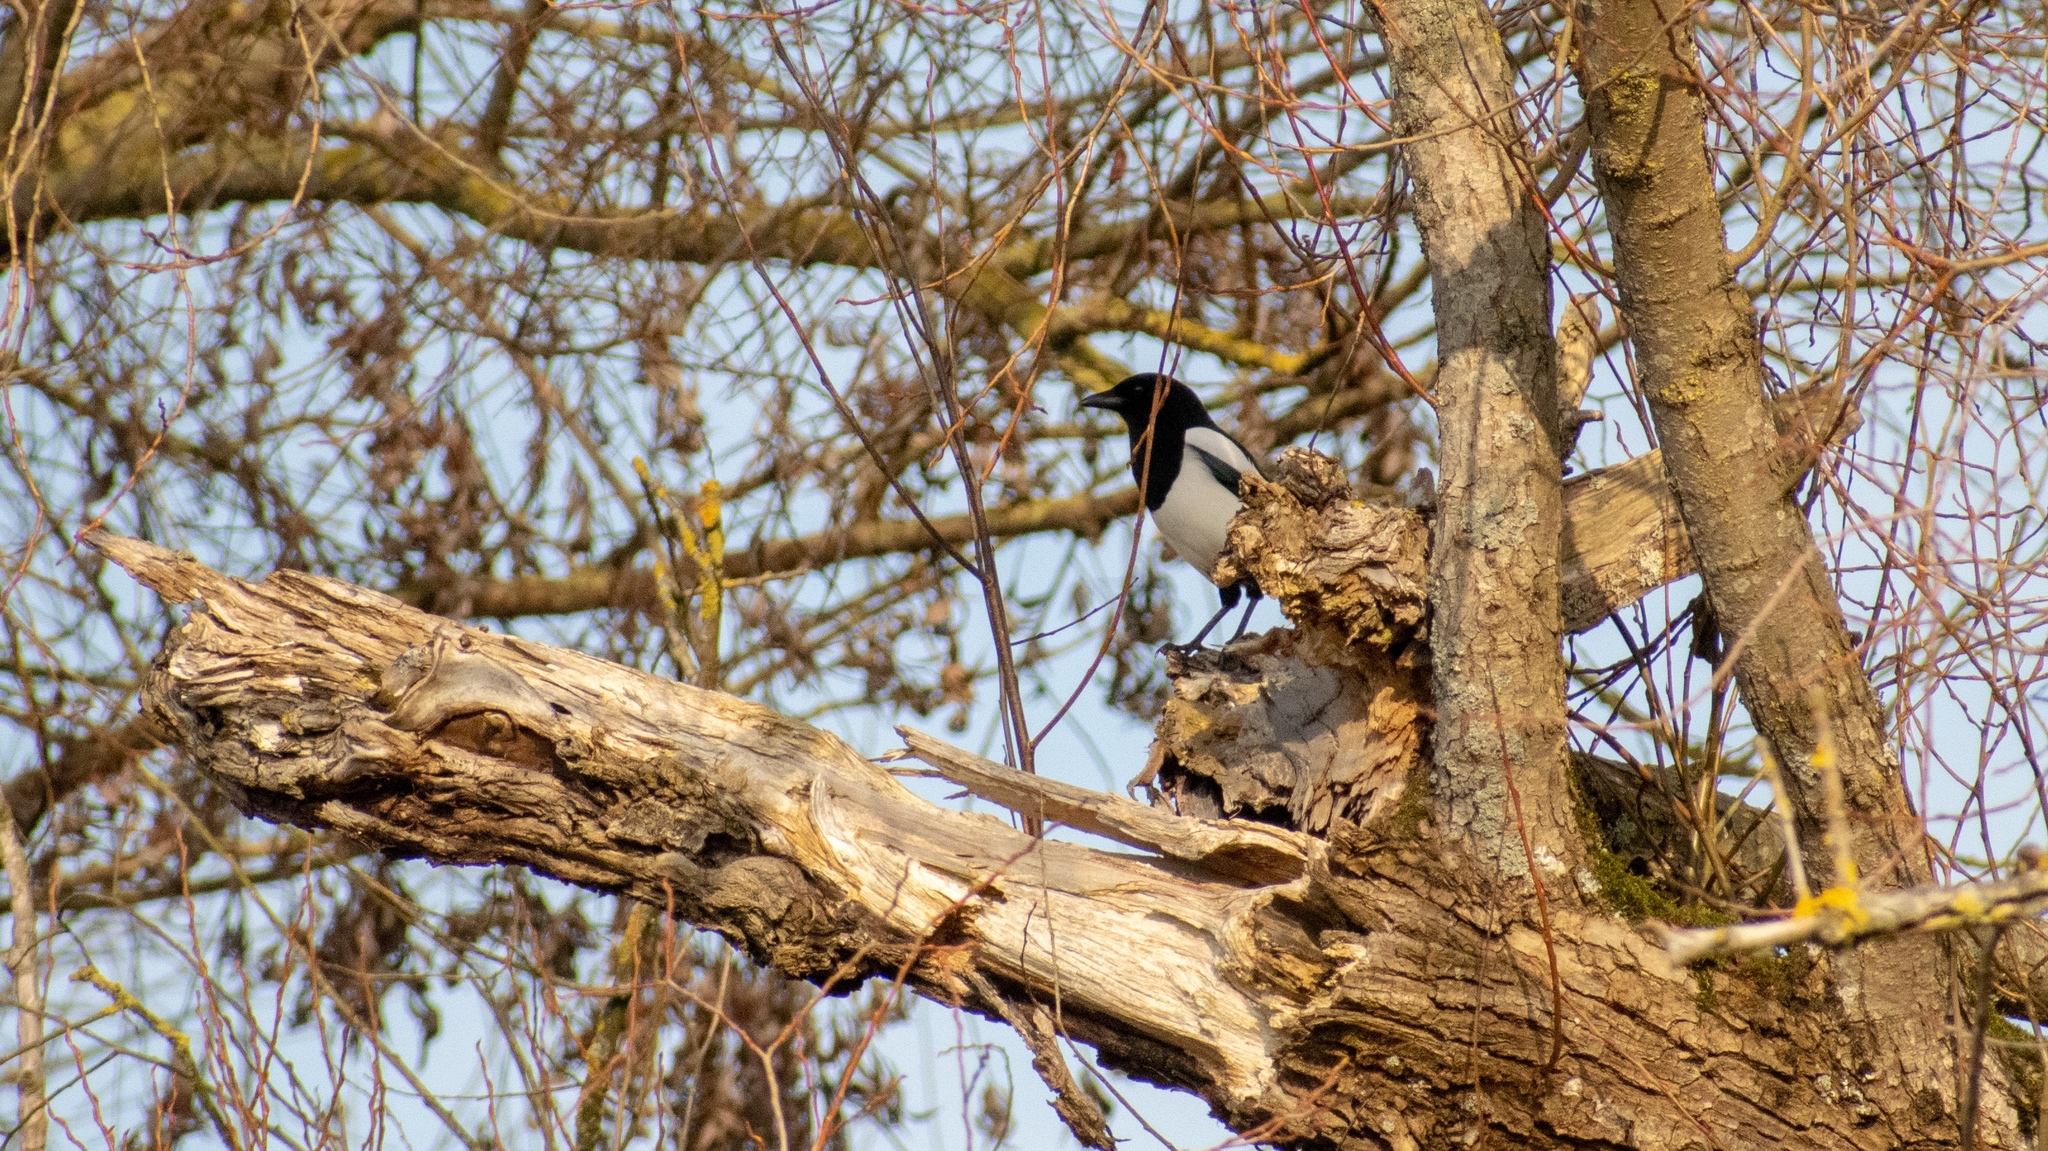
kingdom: Animalia
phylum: Chordata
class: Aves
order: Passeriformes
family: Corvidae
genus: Pica
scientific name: Pica pica
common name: Eurasian magpie
